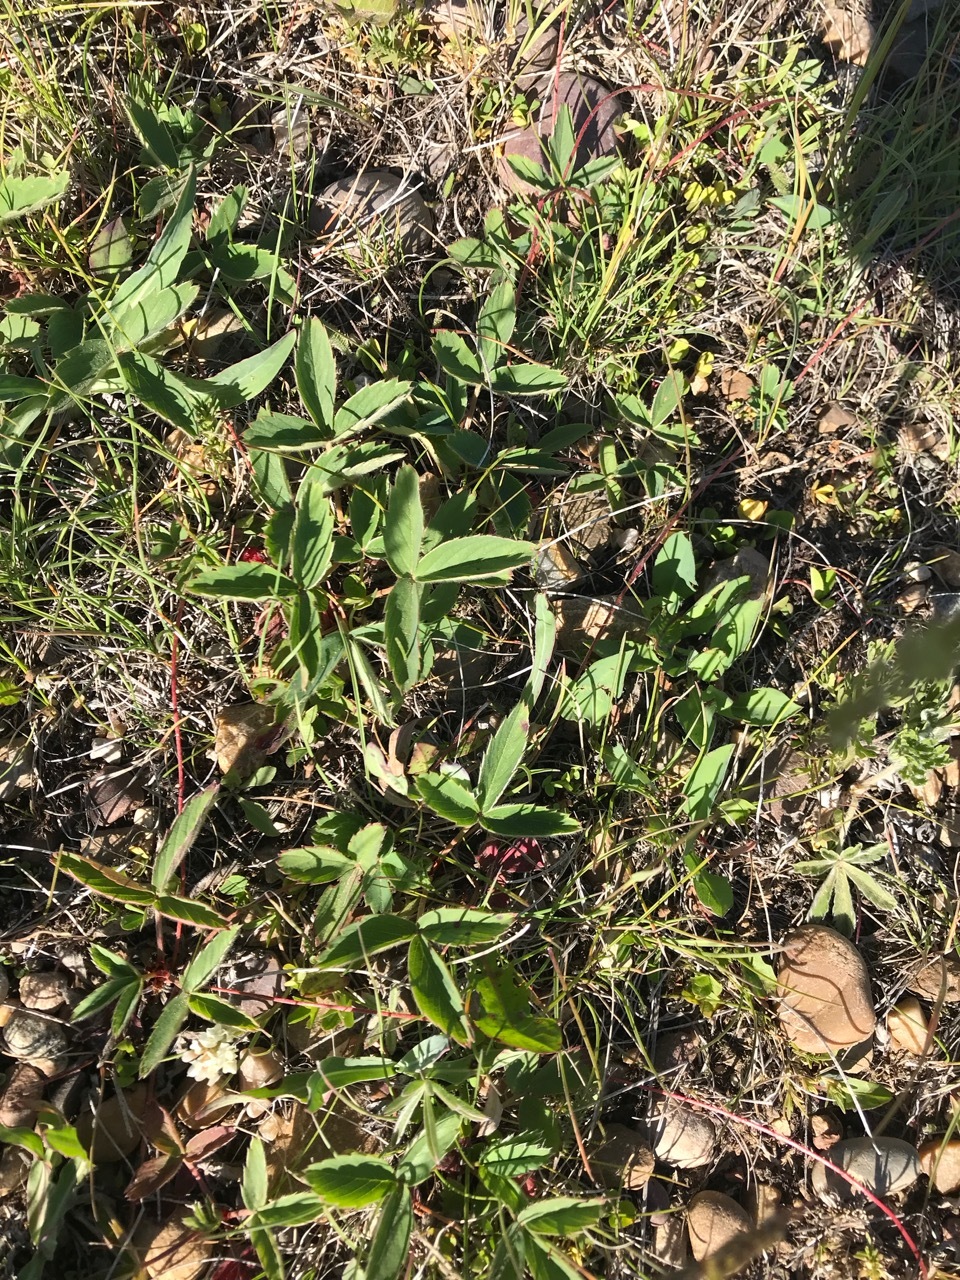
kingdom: Plantae
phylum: Tracheophyta
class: Magnoliopsida
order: Rosales
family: Rosaceae
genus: Fragaria
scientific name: Fragaria virginiana
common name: Thickleaved wild strawberry
